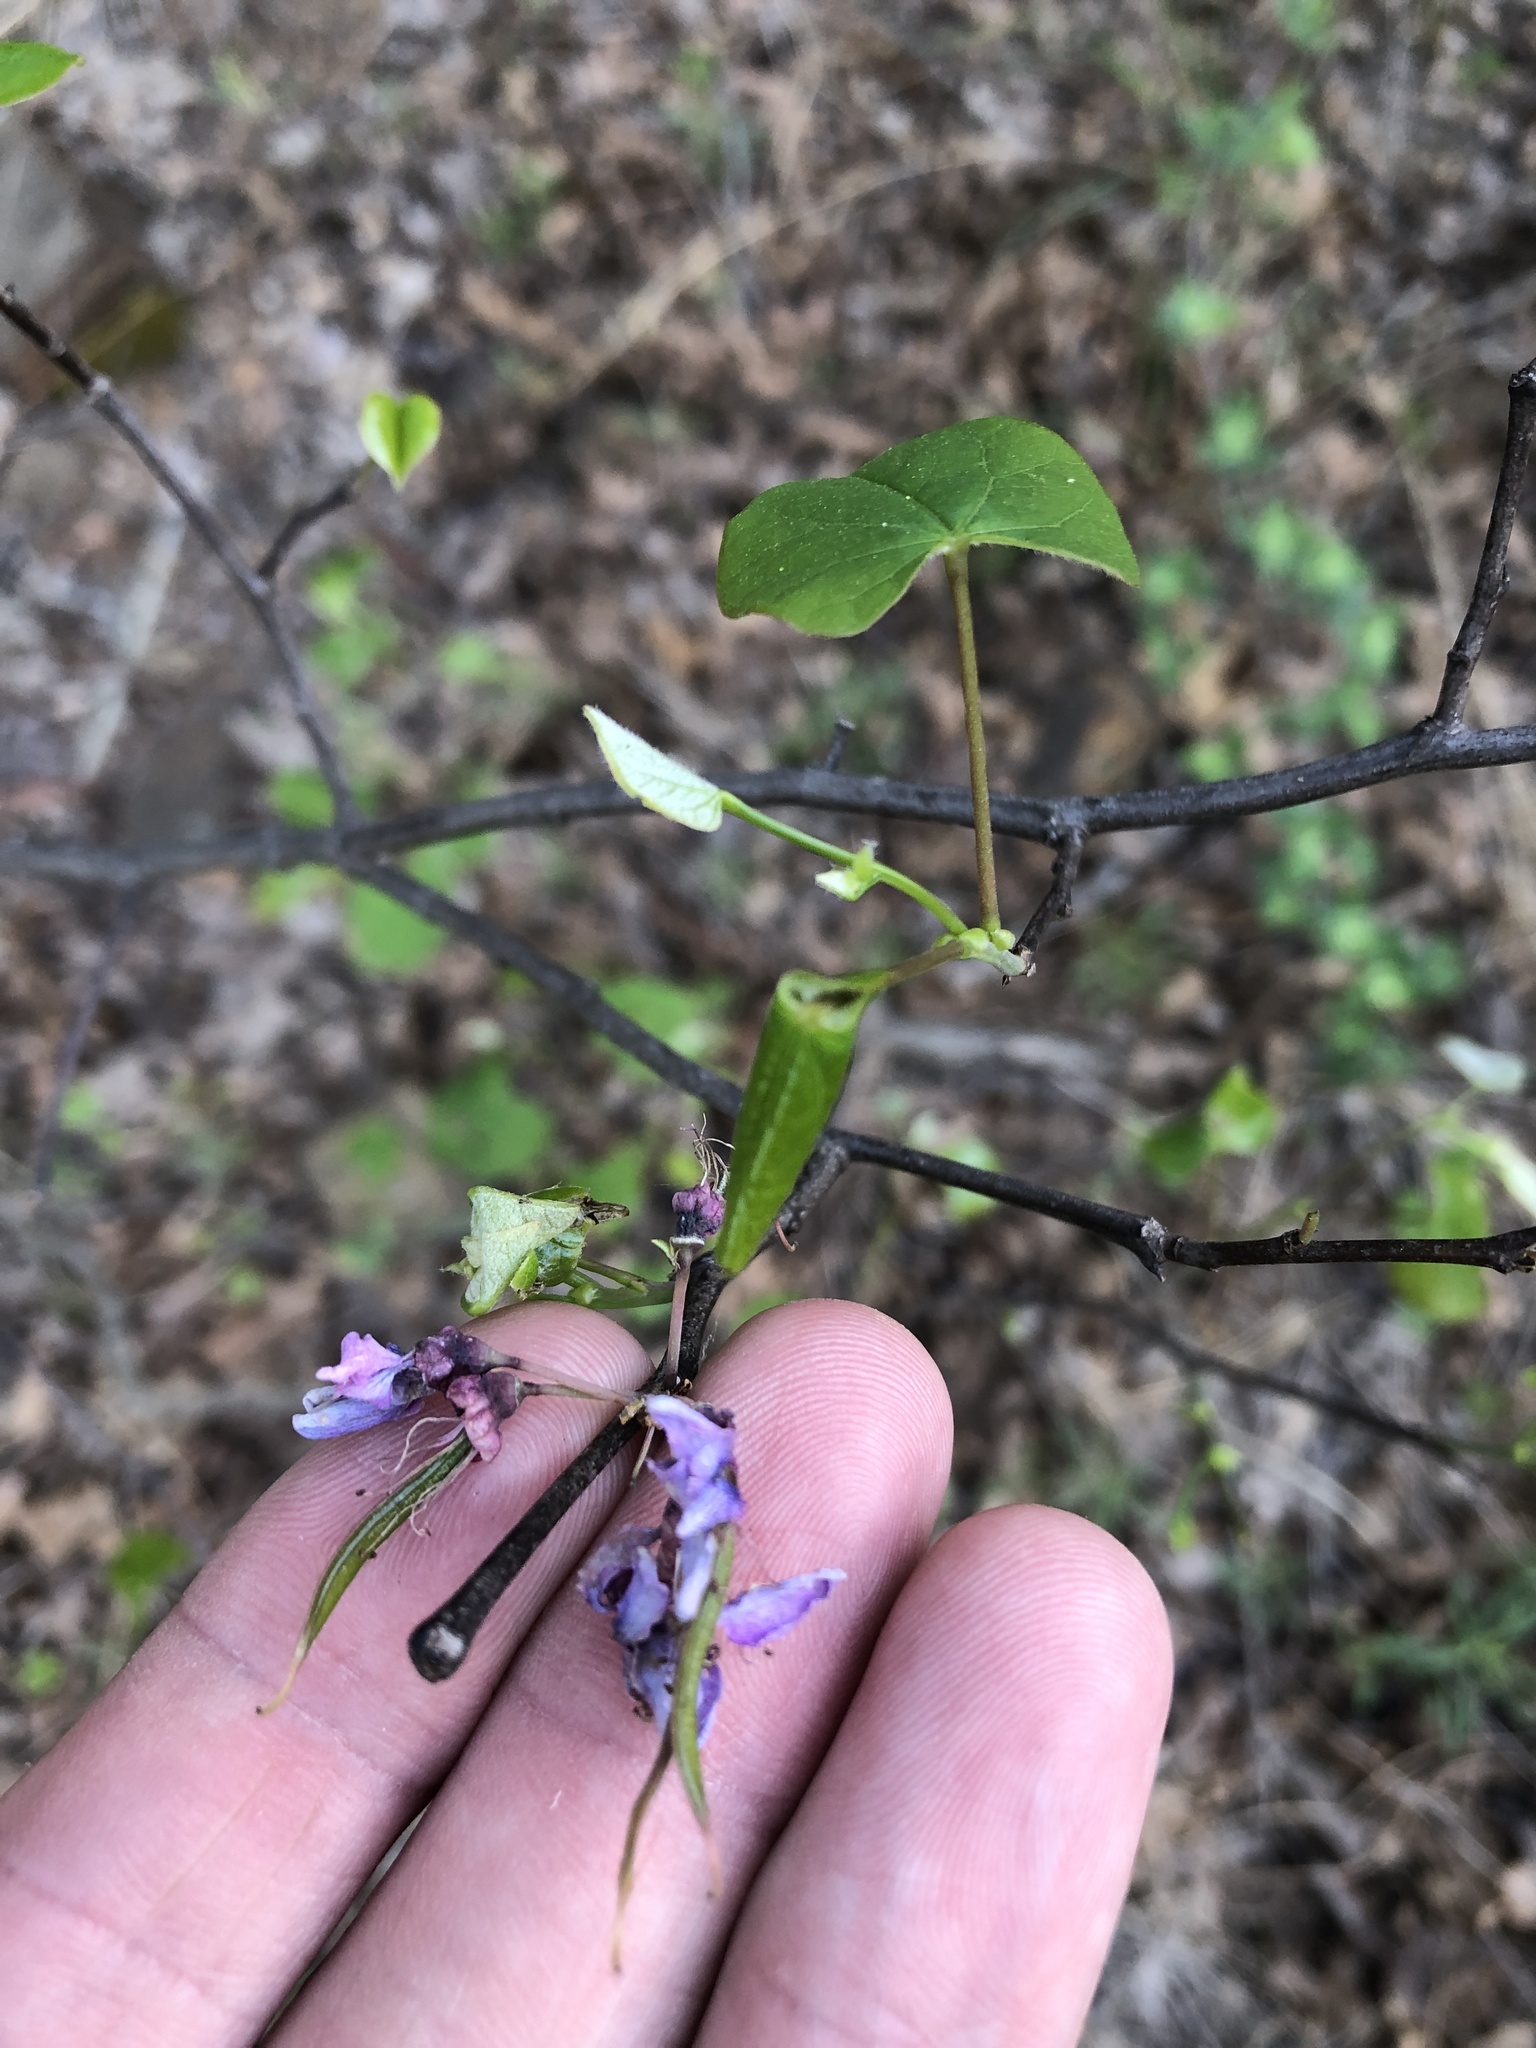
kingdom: Plantae
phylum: Tracheophyta
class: Magnoliopsida
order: Fabales
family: Fabaceae
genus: Cercis
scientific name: Cercis canadensis
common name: Eastern redbud
